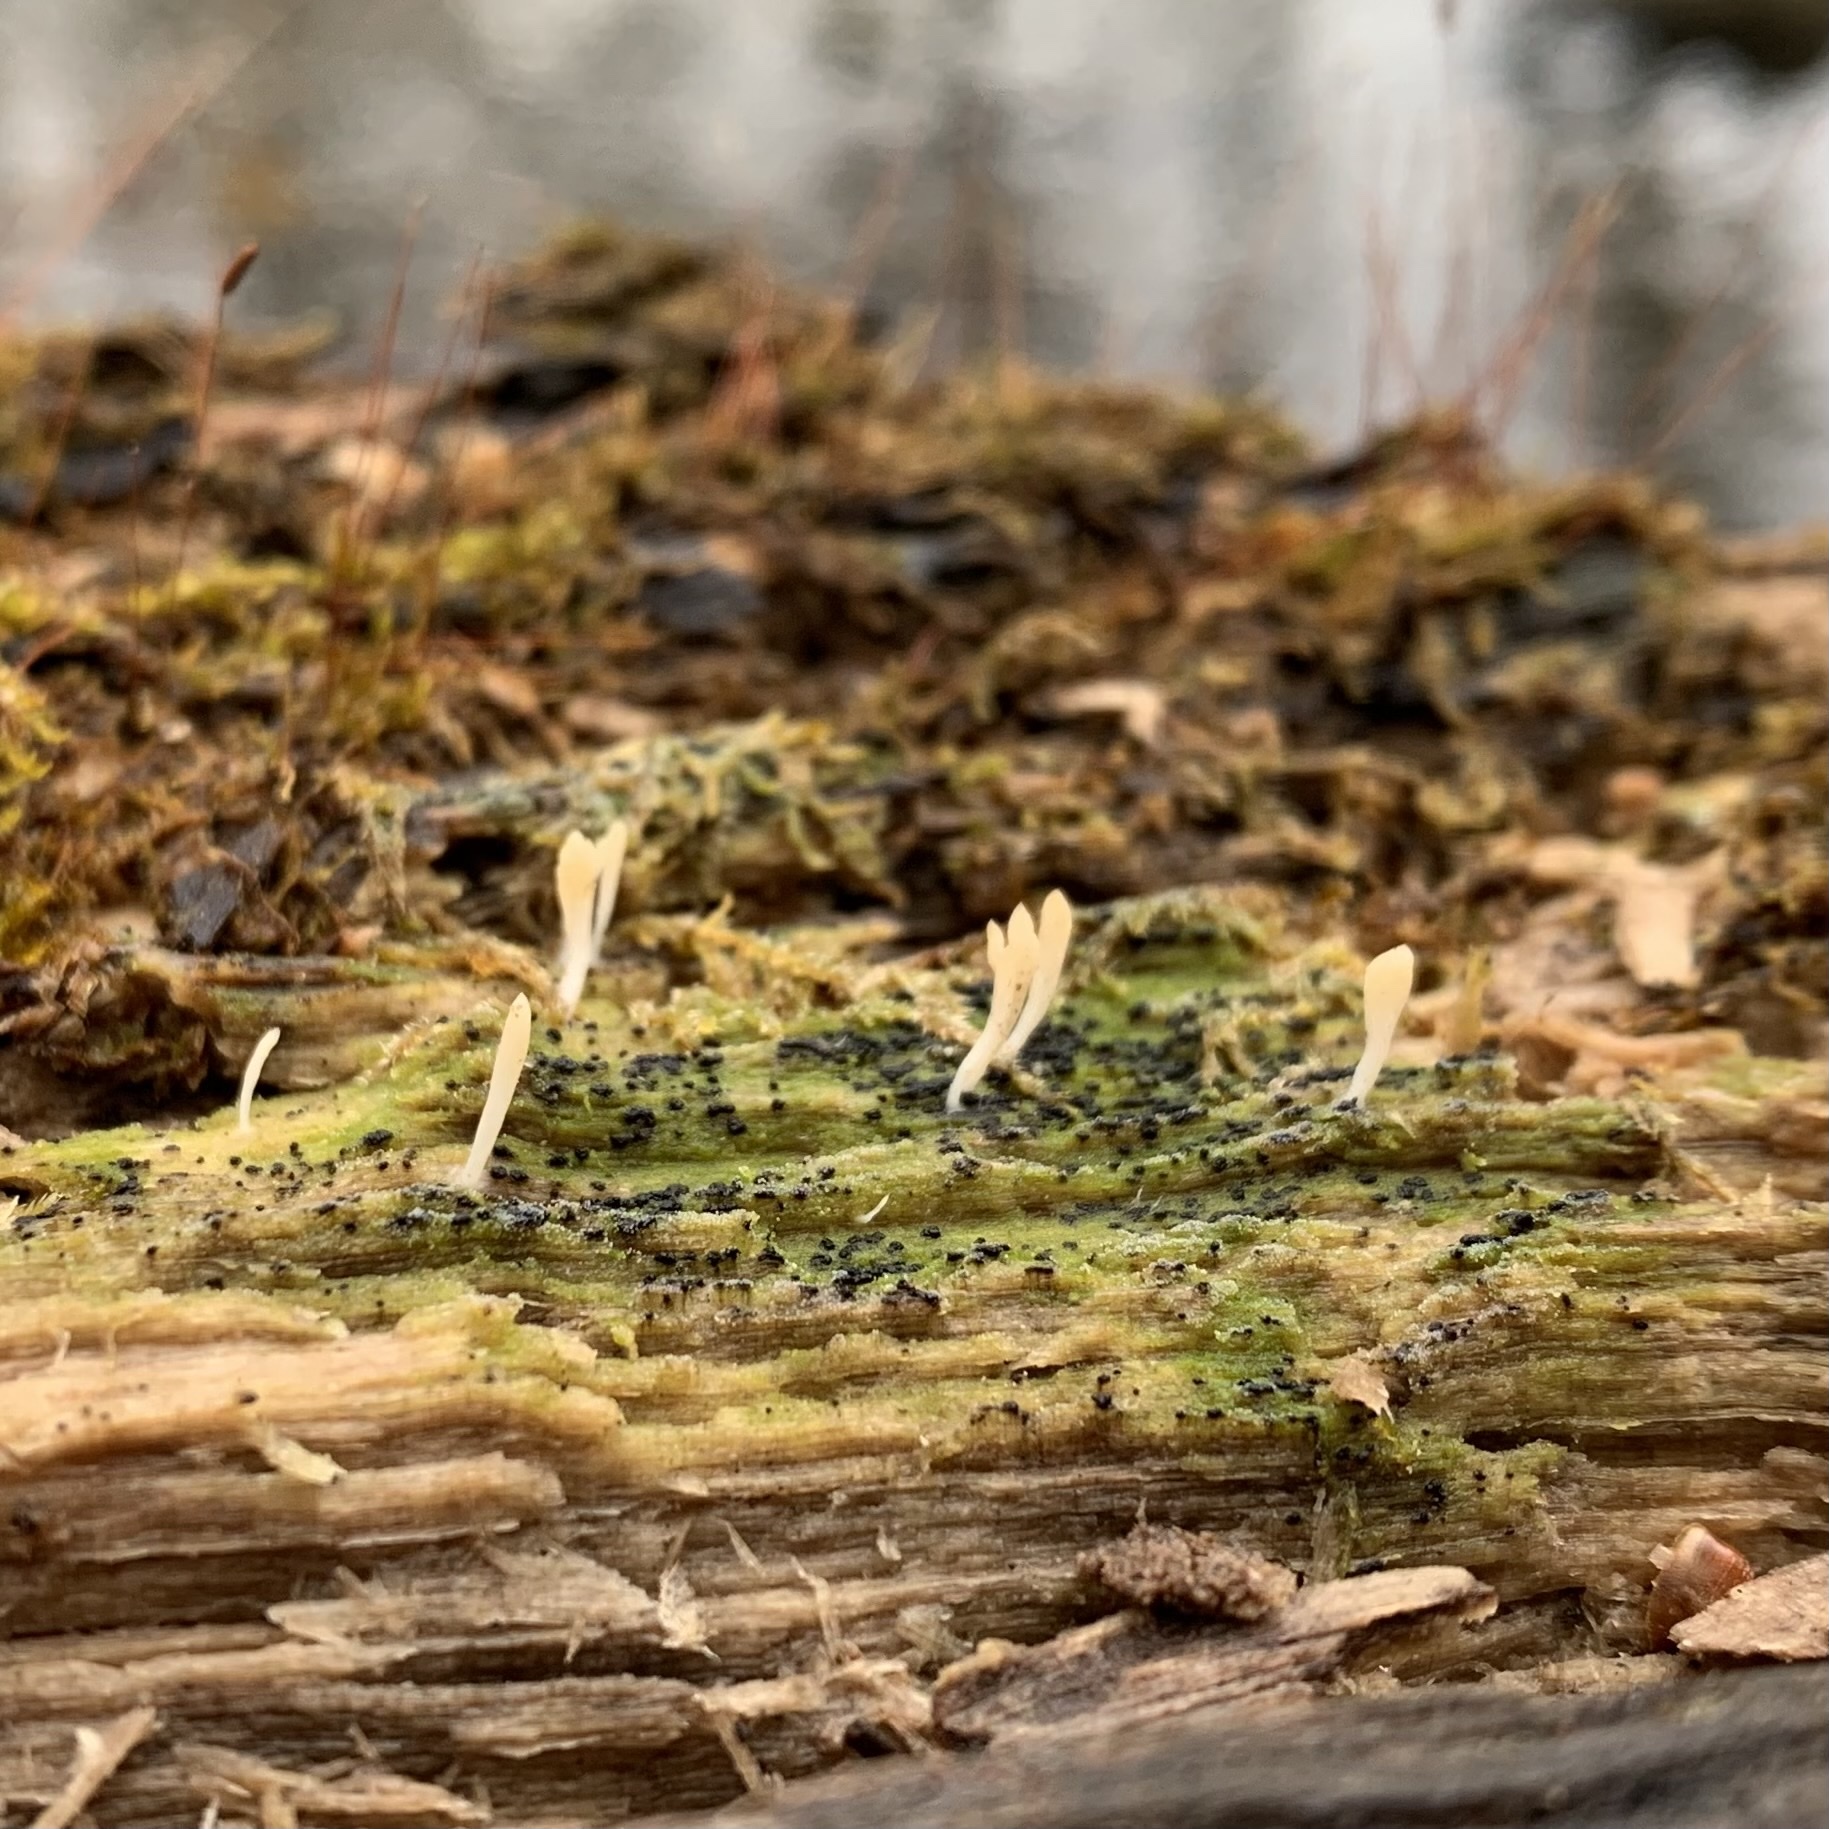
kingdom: Fungi
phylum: Basidiomycota
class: Agaricomycetes
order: Cantharellales
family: Hydnaceae
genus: Multiclavula
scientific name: Multiclavula mucida
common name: White green-algae coral
